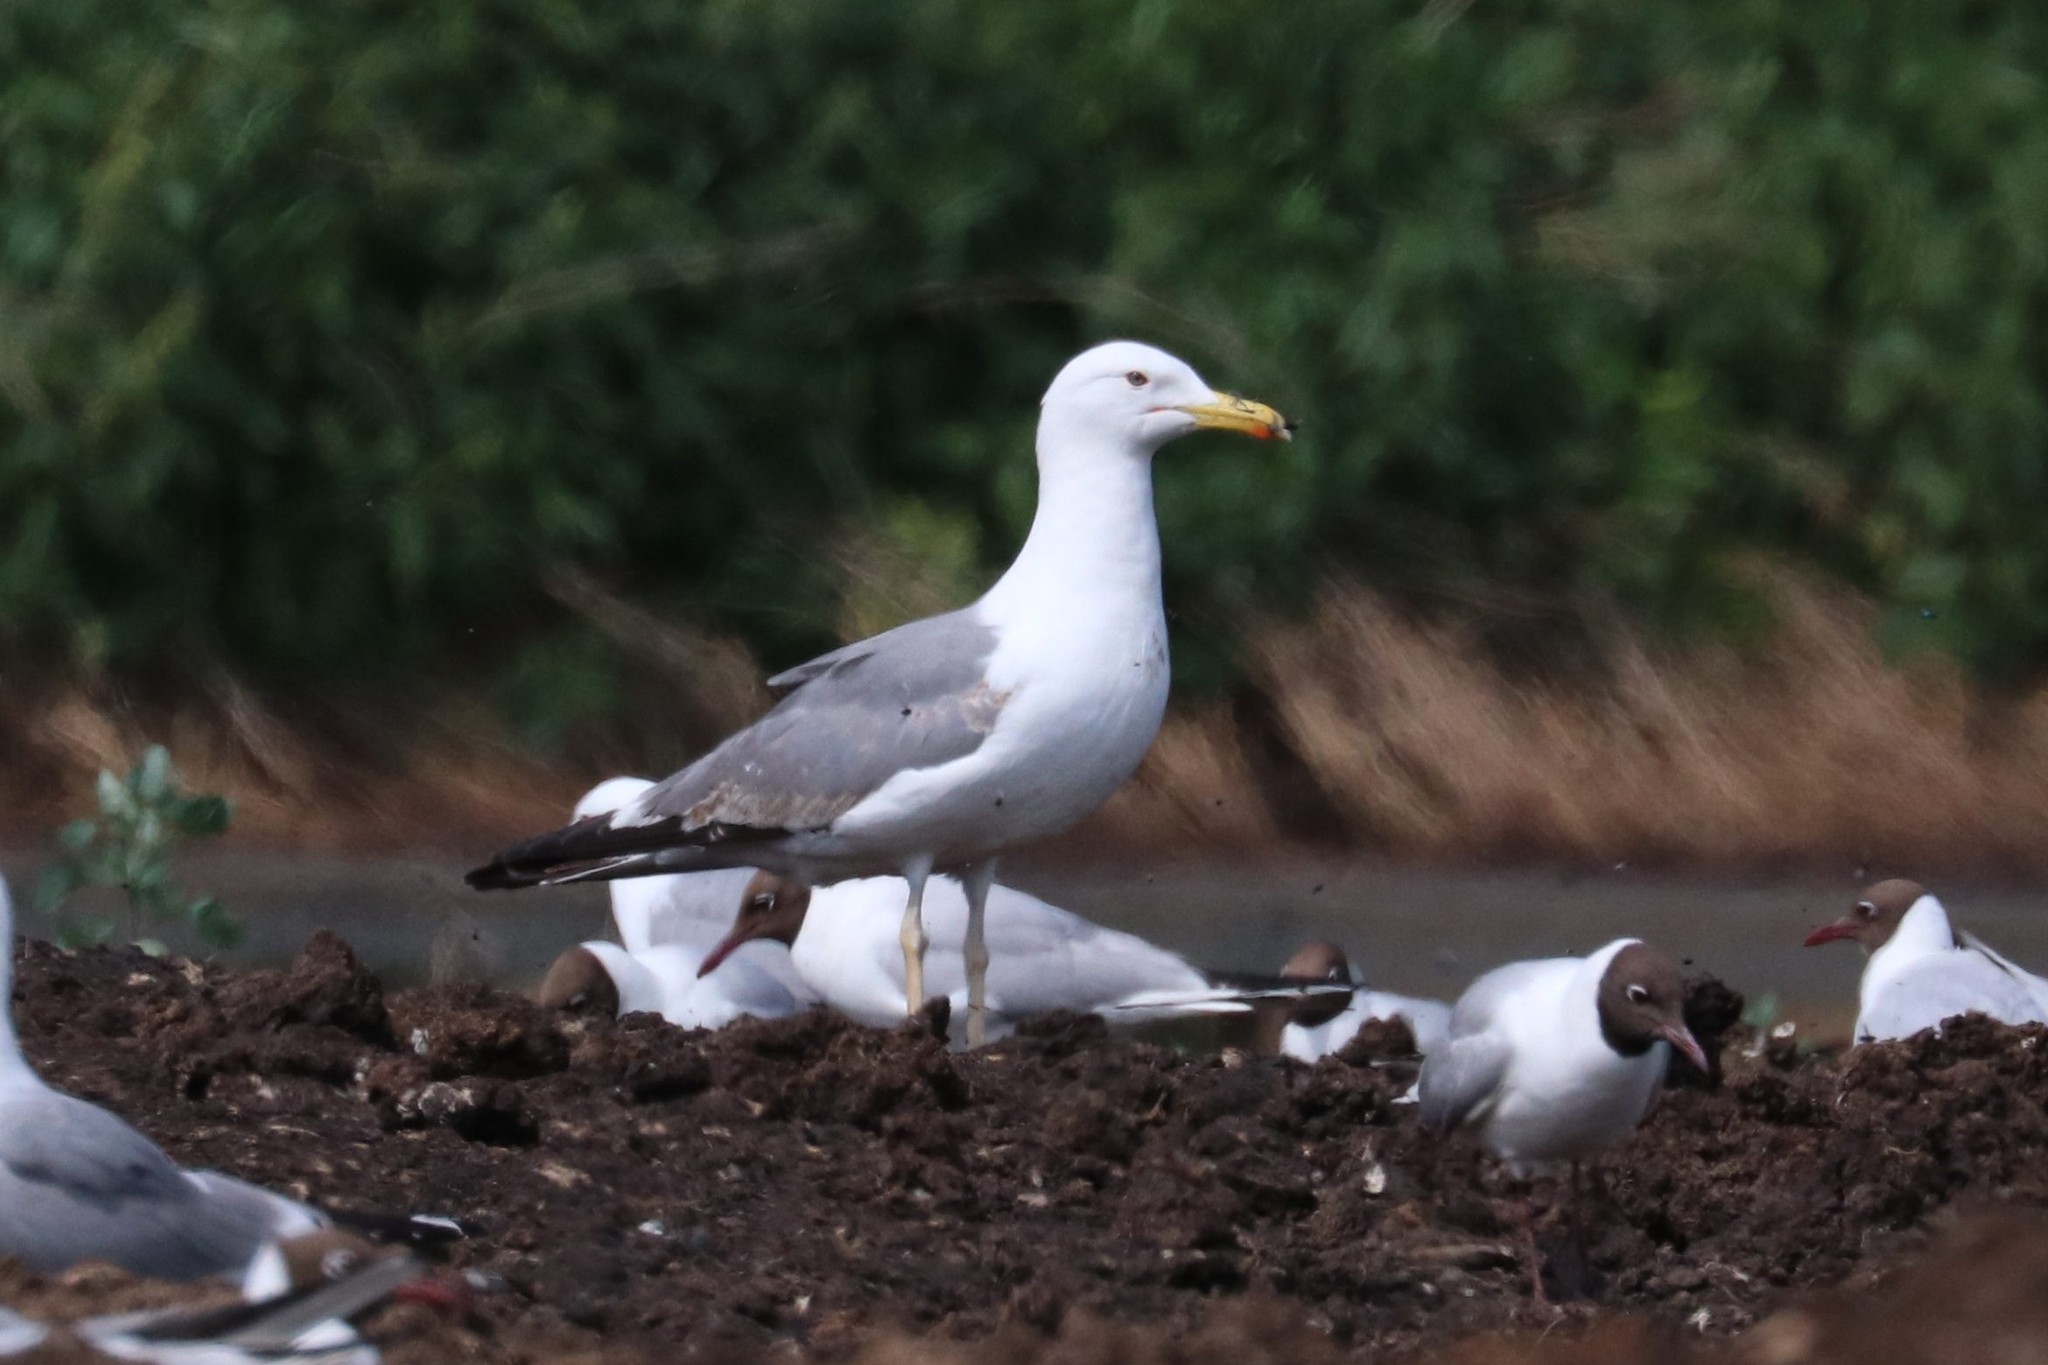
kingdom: Animalia
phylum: Chordata
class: Aves
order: Charadriiformes
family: Laridae
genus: Larus
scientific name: Larus cachinnans
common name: Caspian gull
